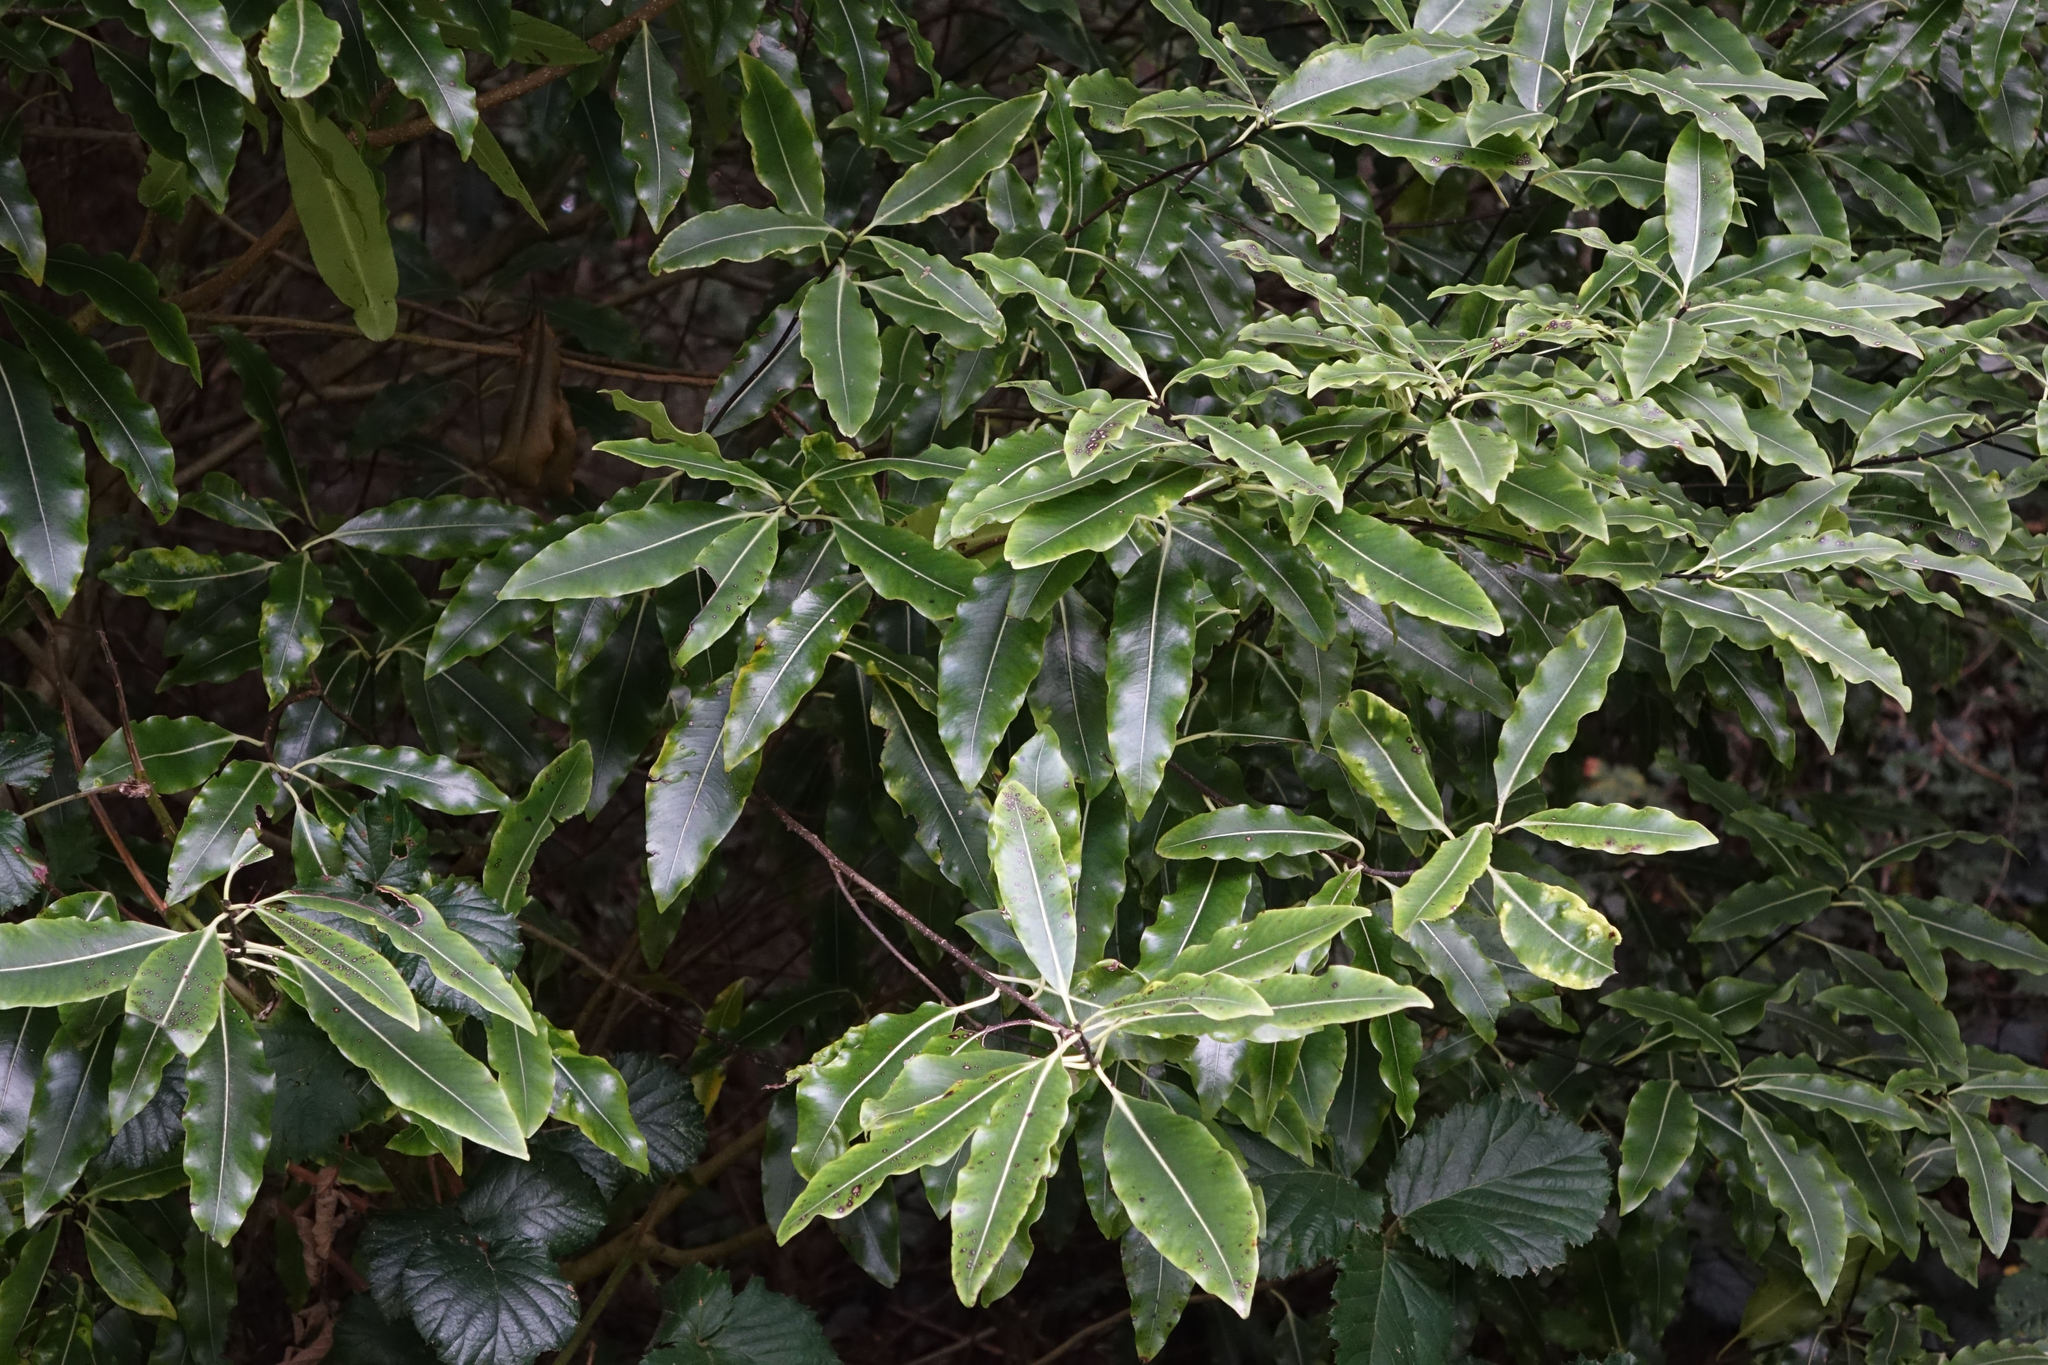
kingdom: Plantae
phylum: Tracheophyta
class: Magnoliopsida
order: Apiales
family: Pittosporaceae
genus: Pittosporum
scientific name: Pittosporum eugenioides
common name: Lemonwood
